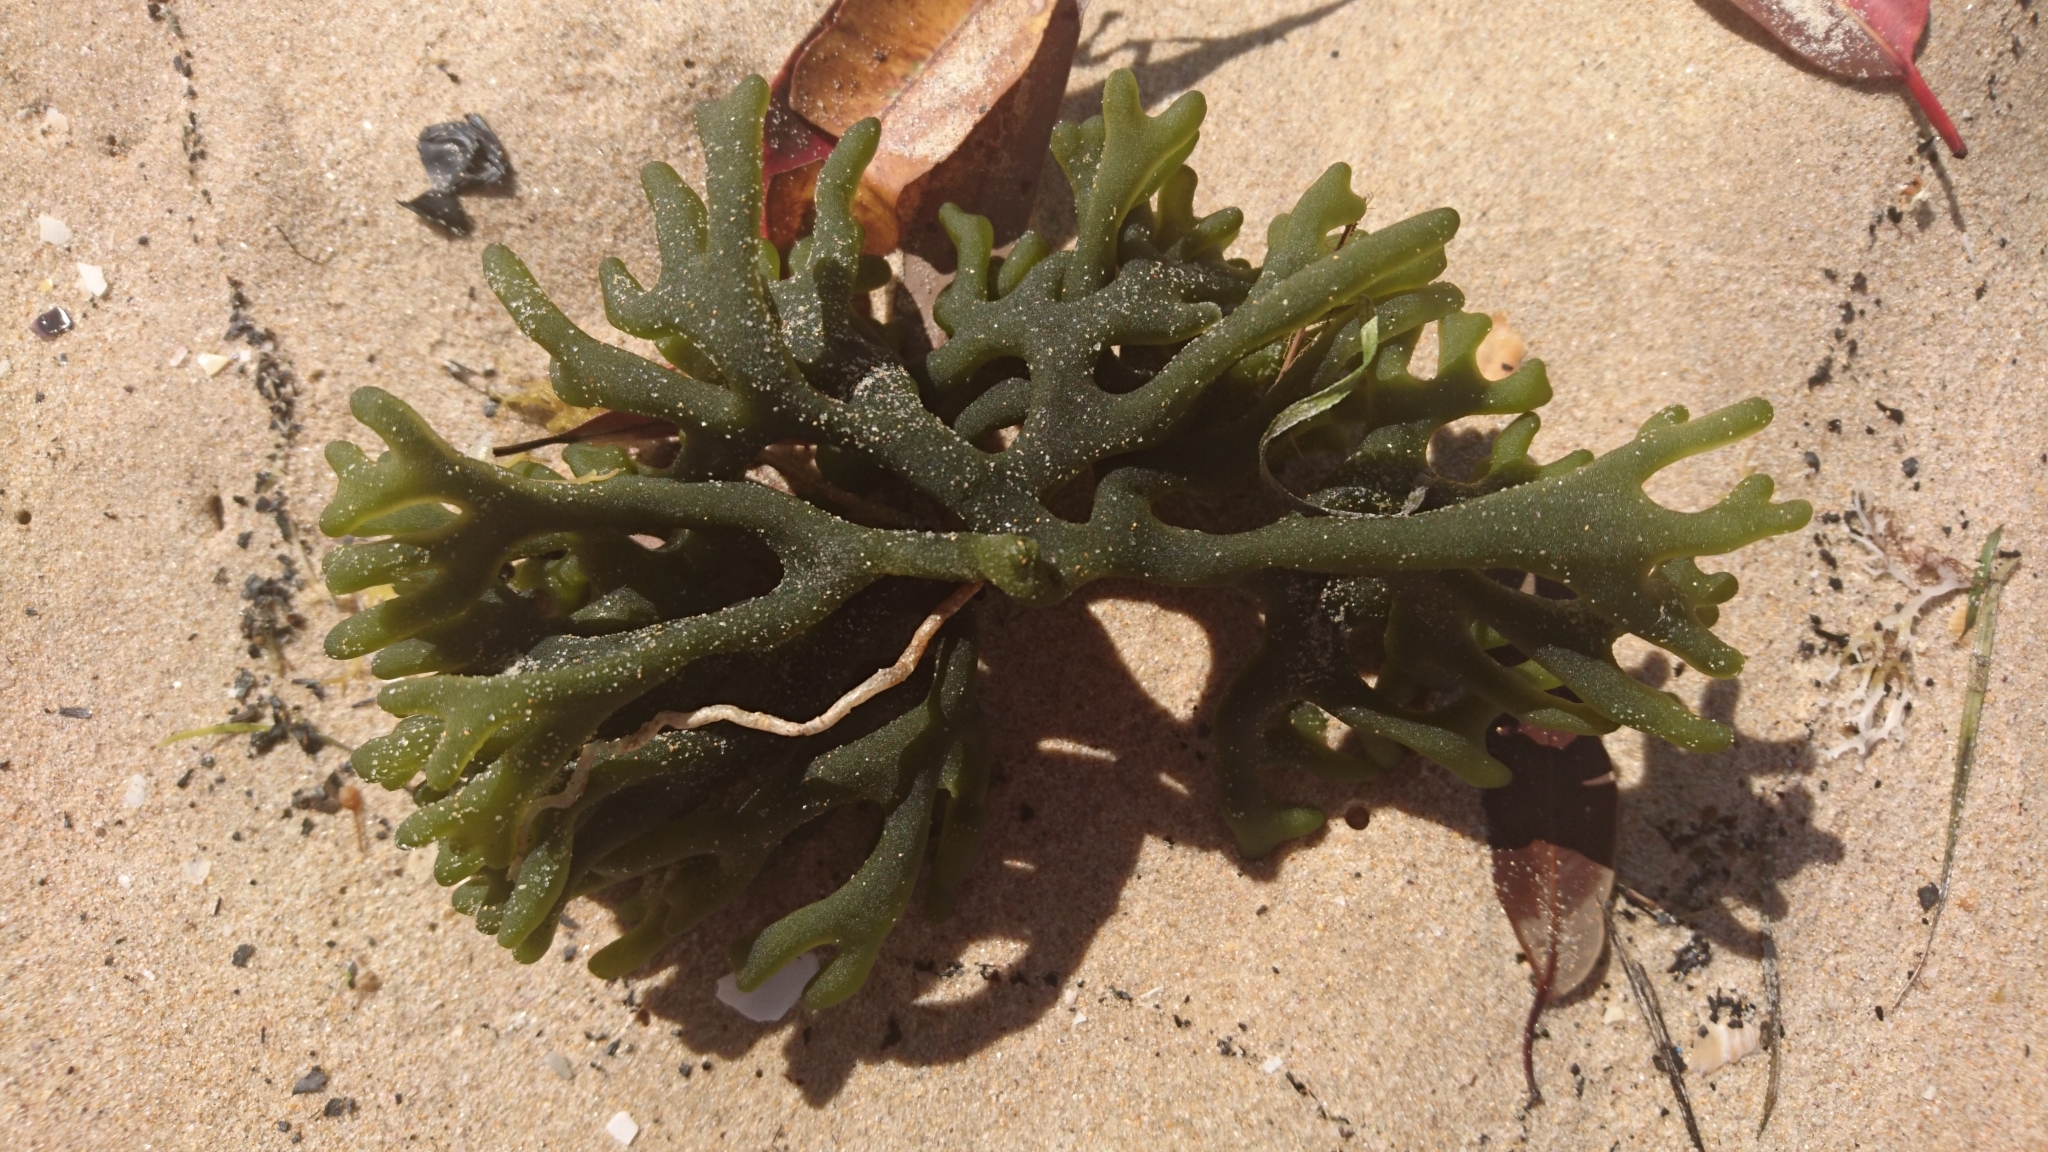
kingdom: Plantae
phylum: Chlorophyta
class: Ulvophyceae
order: Bryopsidales
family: Codiaceae
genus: Codium
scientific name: Codium fragile
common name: Dead man's fingers
